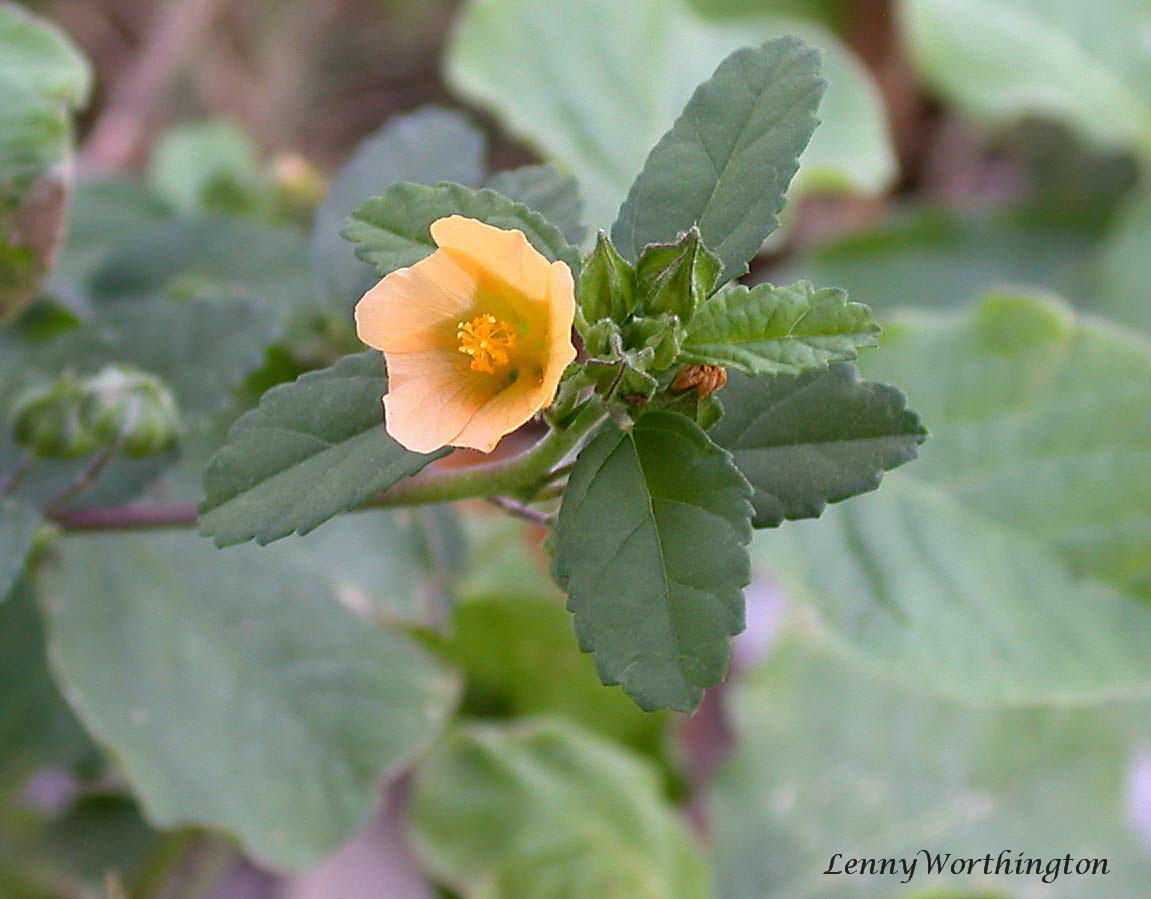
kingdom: Plantae
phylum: Tracheophyta
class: Magnoliopsida
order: Malvales
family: Malvaceae
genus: Sida
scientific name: Sida acuta
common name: Common wireweed
